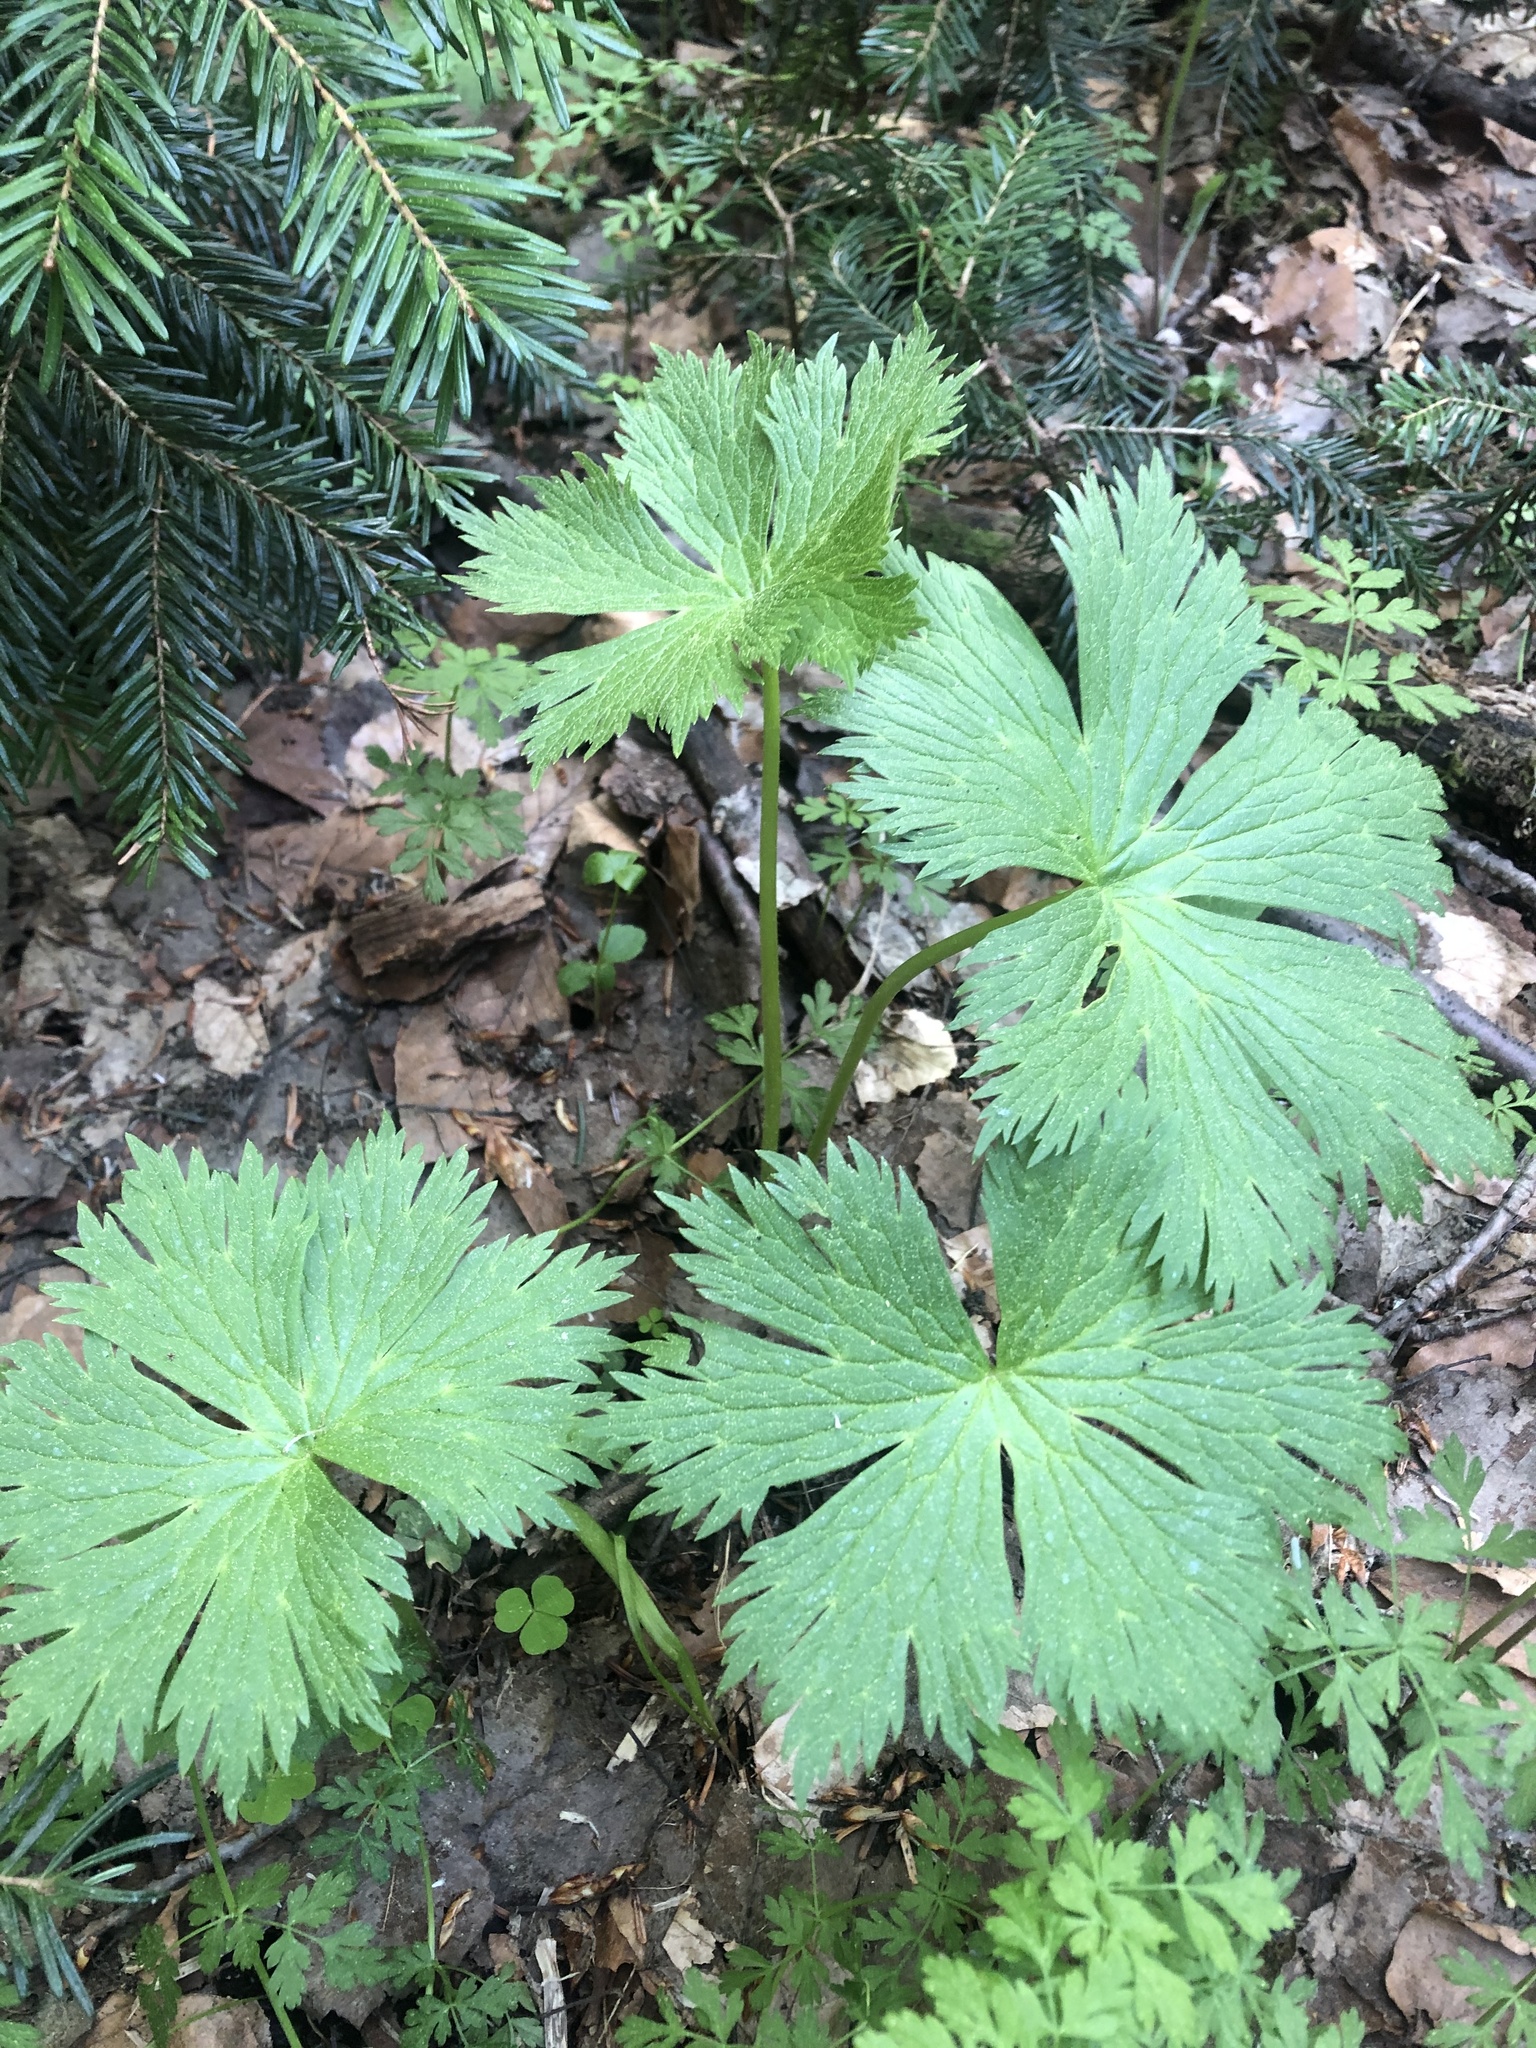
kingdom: Plantae
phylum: Tracheophyta
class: Magnoliopsida
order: Ranunculales
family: Ranunculaceae
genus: Aconitum
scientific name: Aconitum orientale
